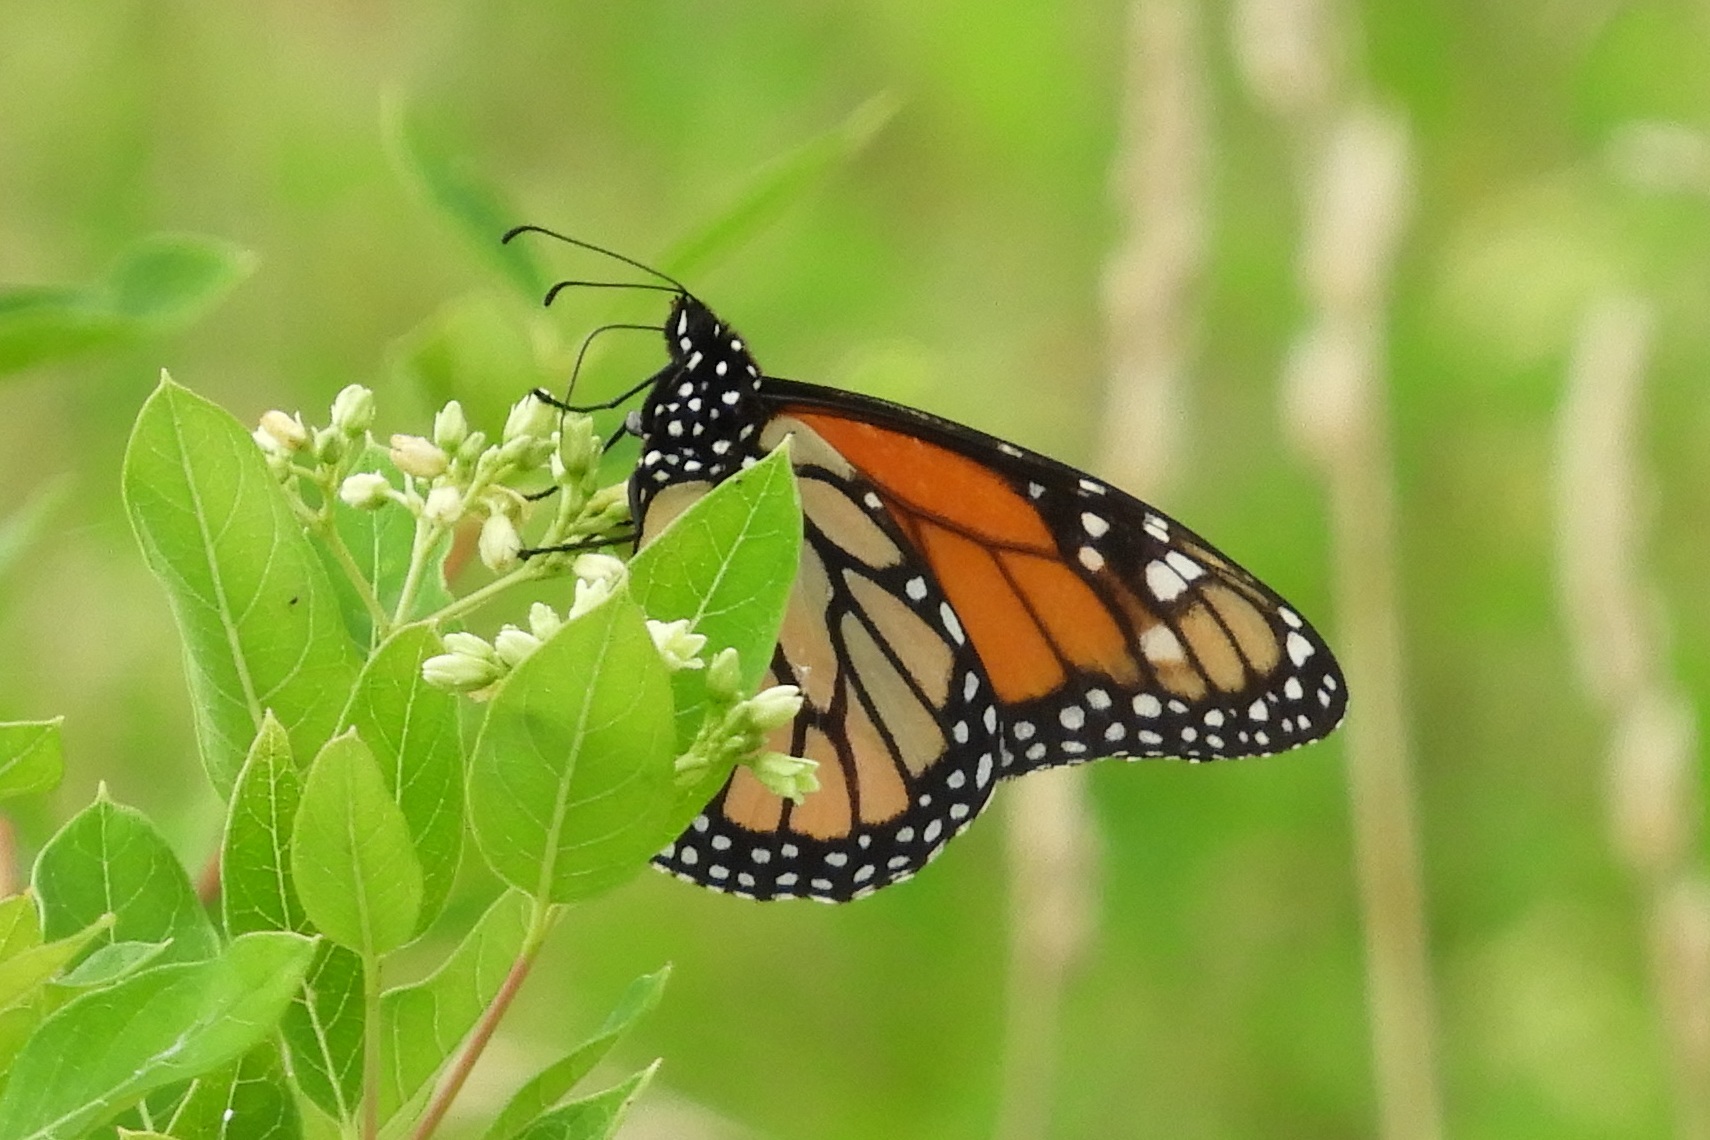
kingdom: Animalia
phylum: Arthropoda
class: Insecta
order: Lepidoptera
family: Nymphalidae
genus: Danaus
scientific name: Danaus plexippus
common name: Monarch
